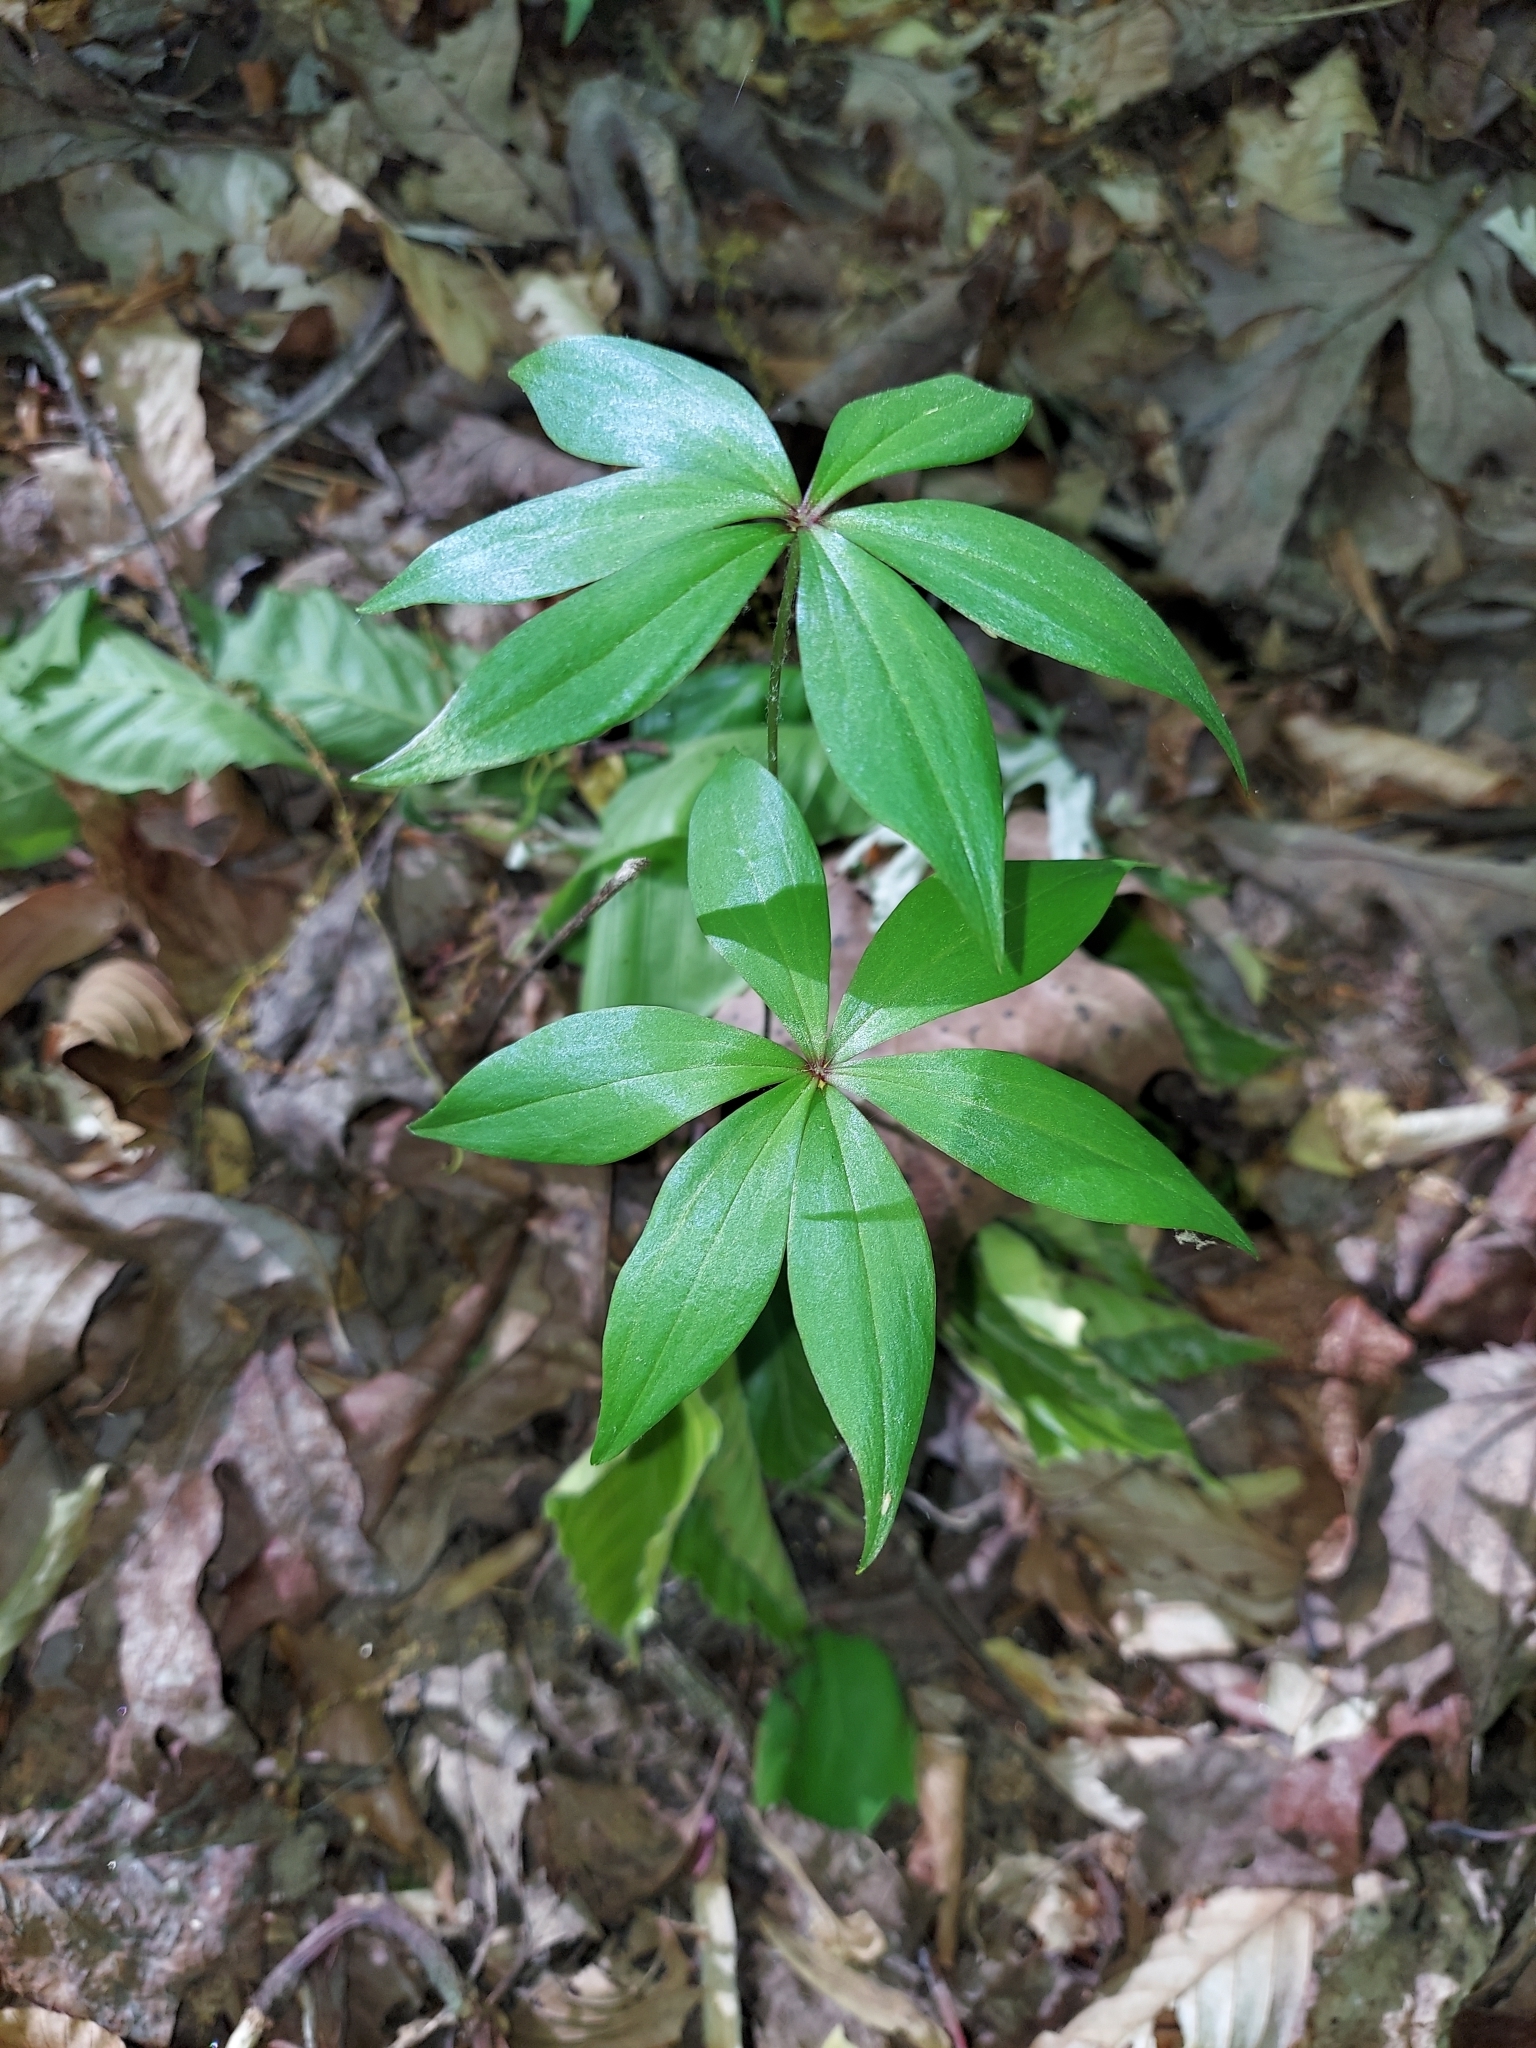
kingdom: Plantae
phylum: Tracheophyta
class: Liliopsida
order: Liliales
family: Liliaceae
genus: Medeola
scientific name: Medeola virginiana
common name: Indian cucumber-root
